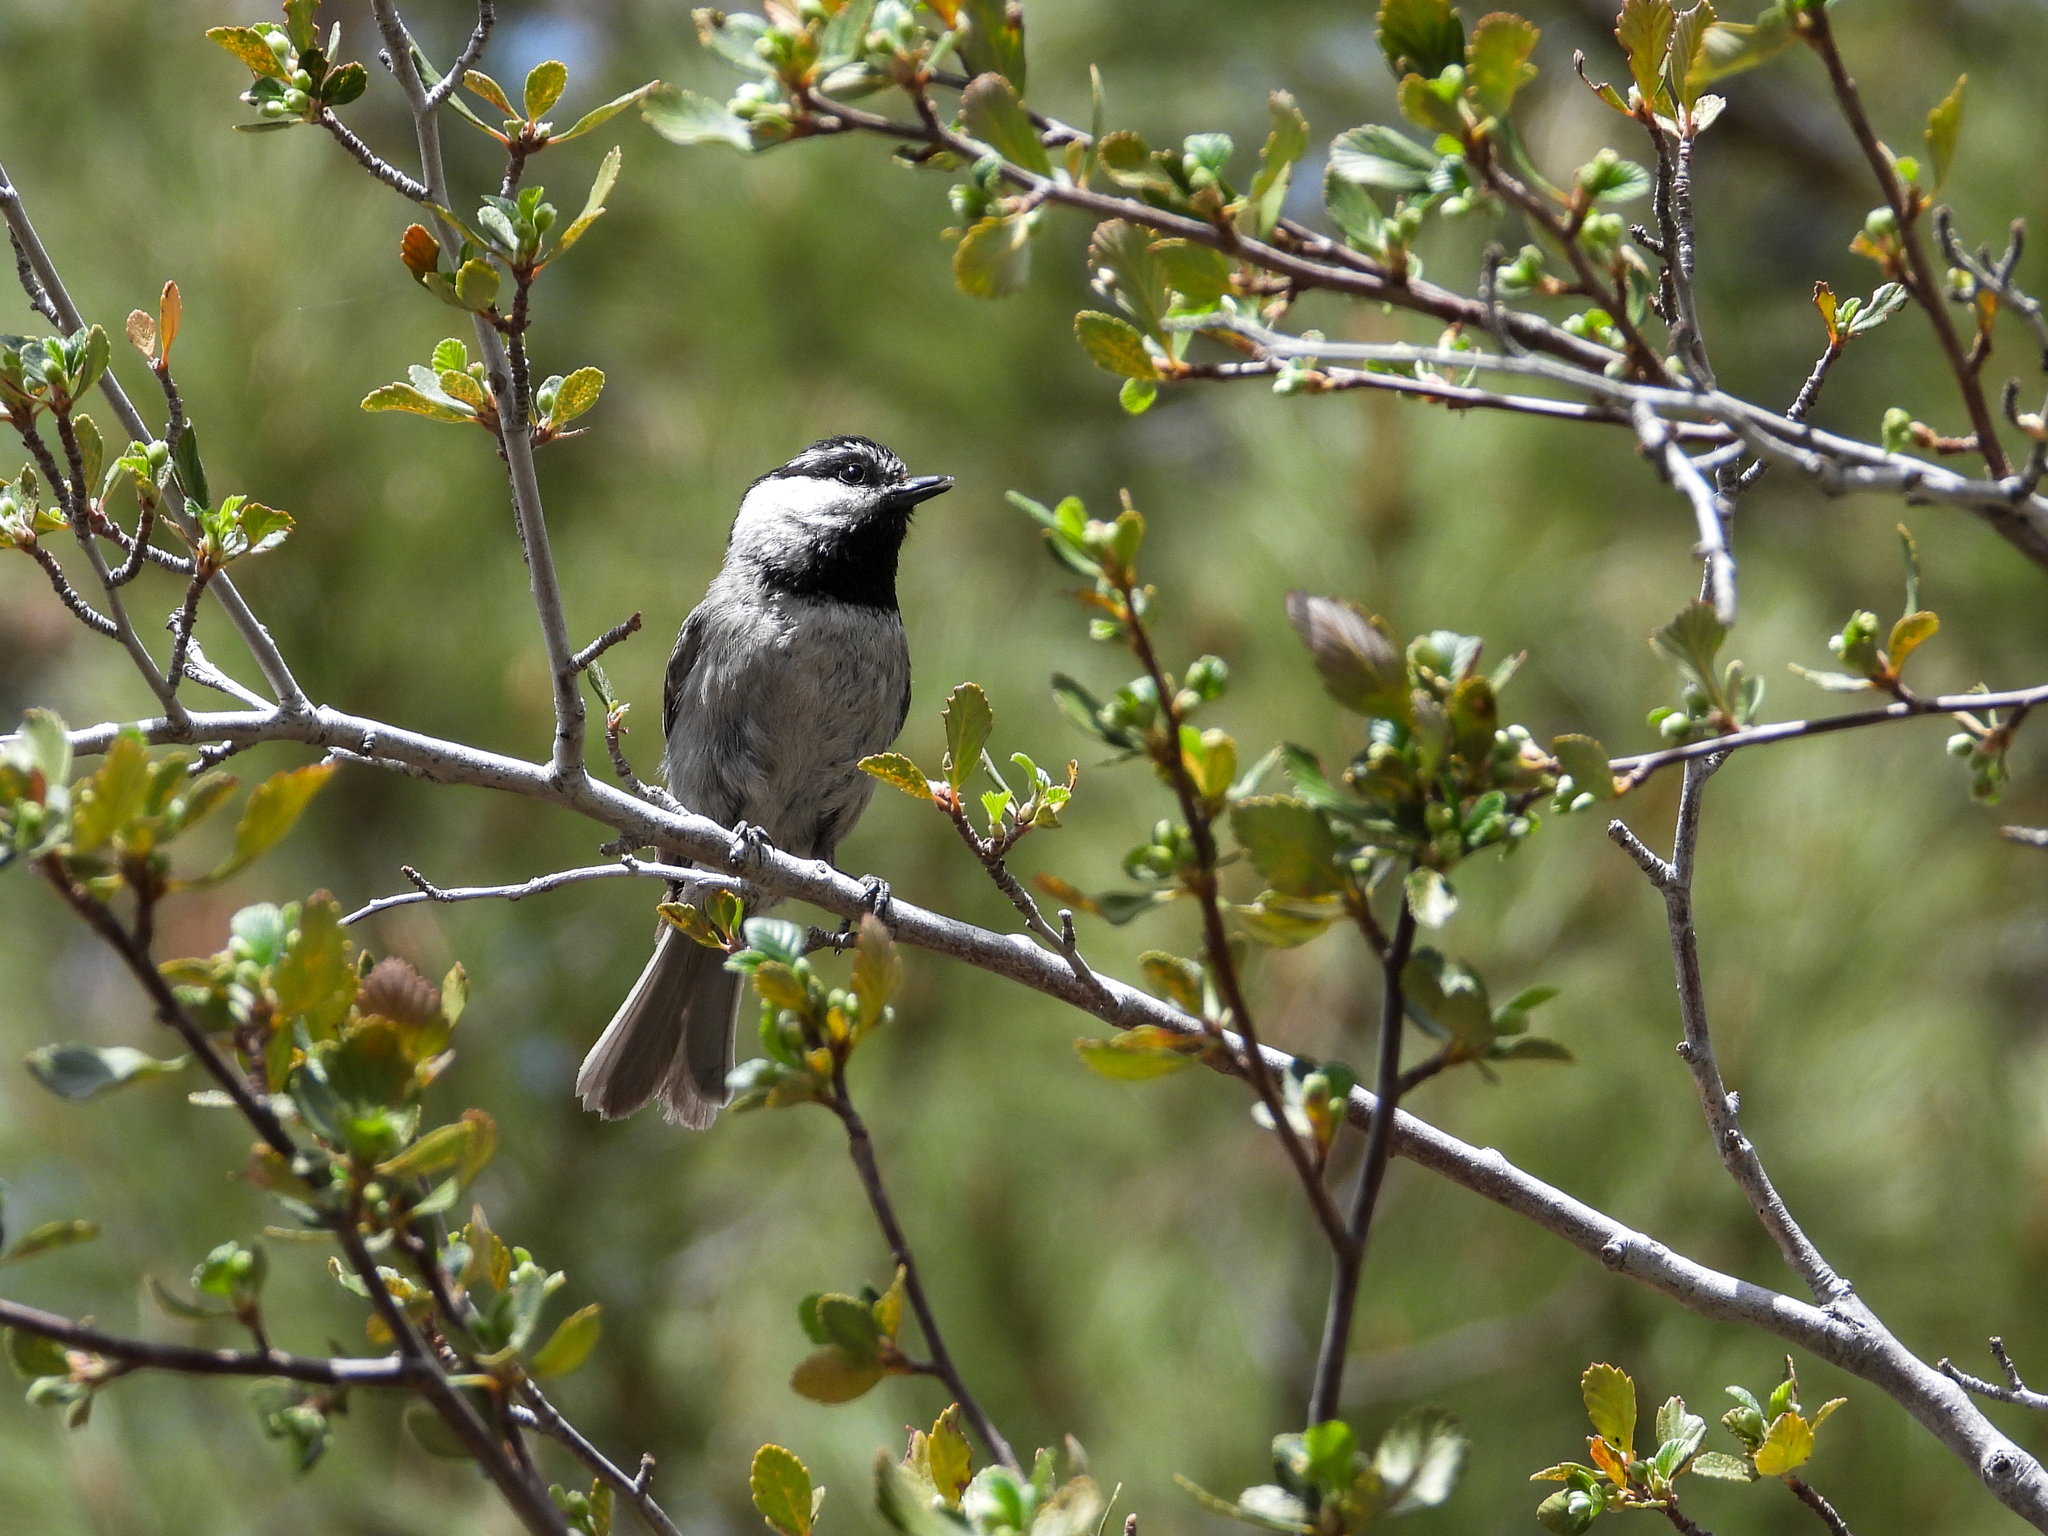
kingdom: Animalia
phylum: Chordata
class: Aves
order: Passeriformes
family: Paridae
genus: Poecile
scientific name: Poecile gambeli
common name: Mountain chickadee
